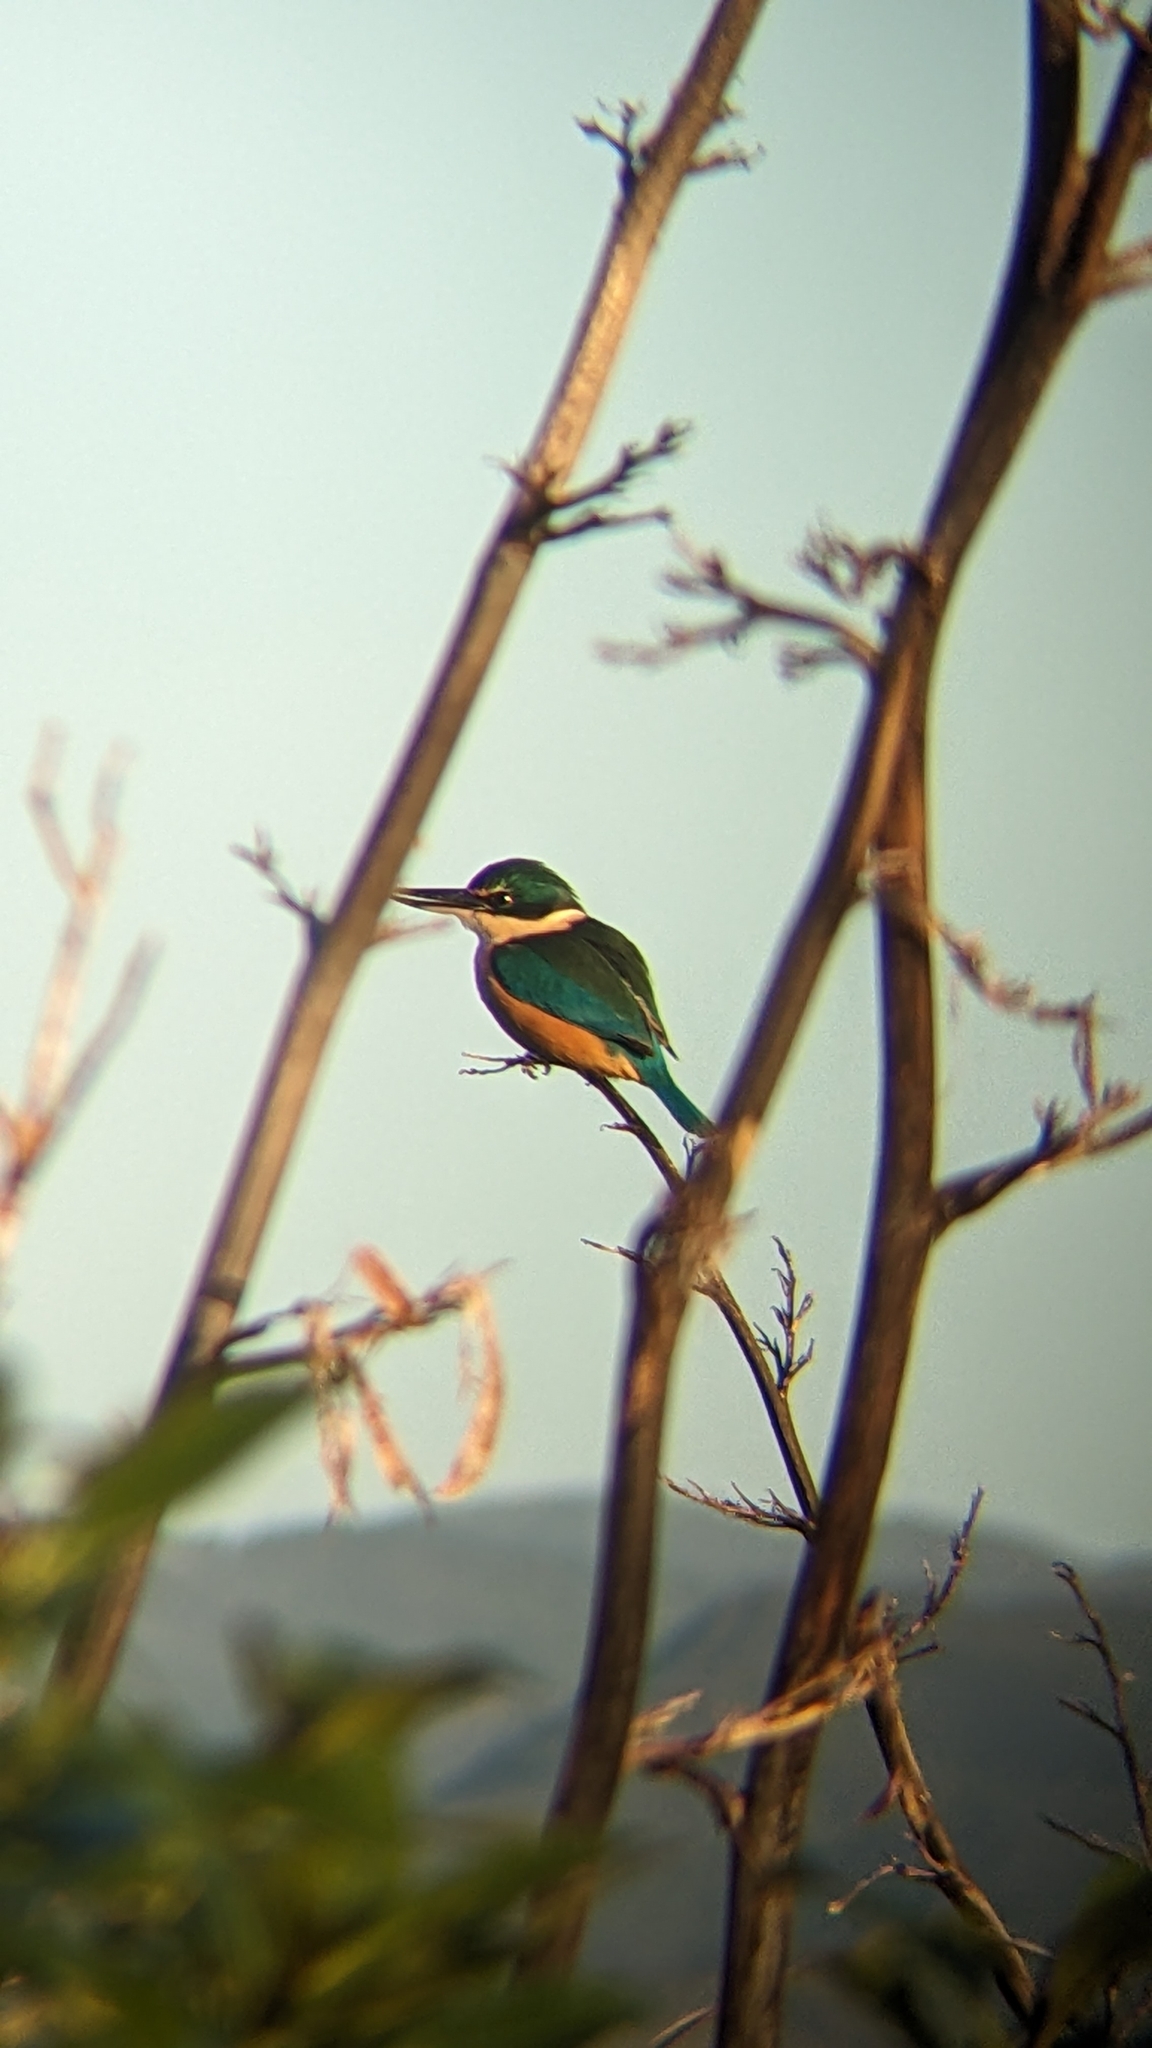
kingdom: Animalia
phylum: Chordata
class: Aves
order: Coraciiformes
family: Alcedinidae
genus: Todiramphus
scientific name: Todiramphus sanctus
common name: Sacred kingfisher
